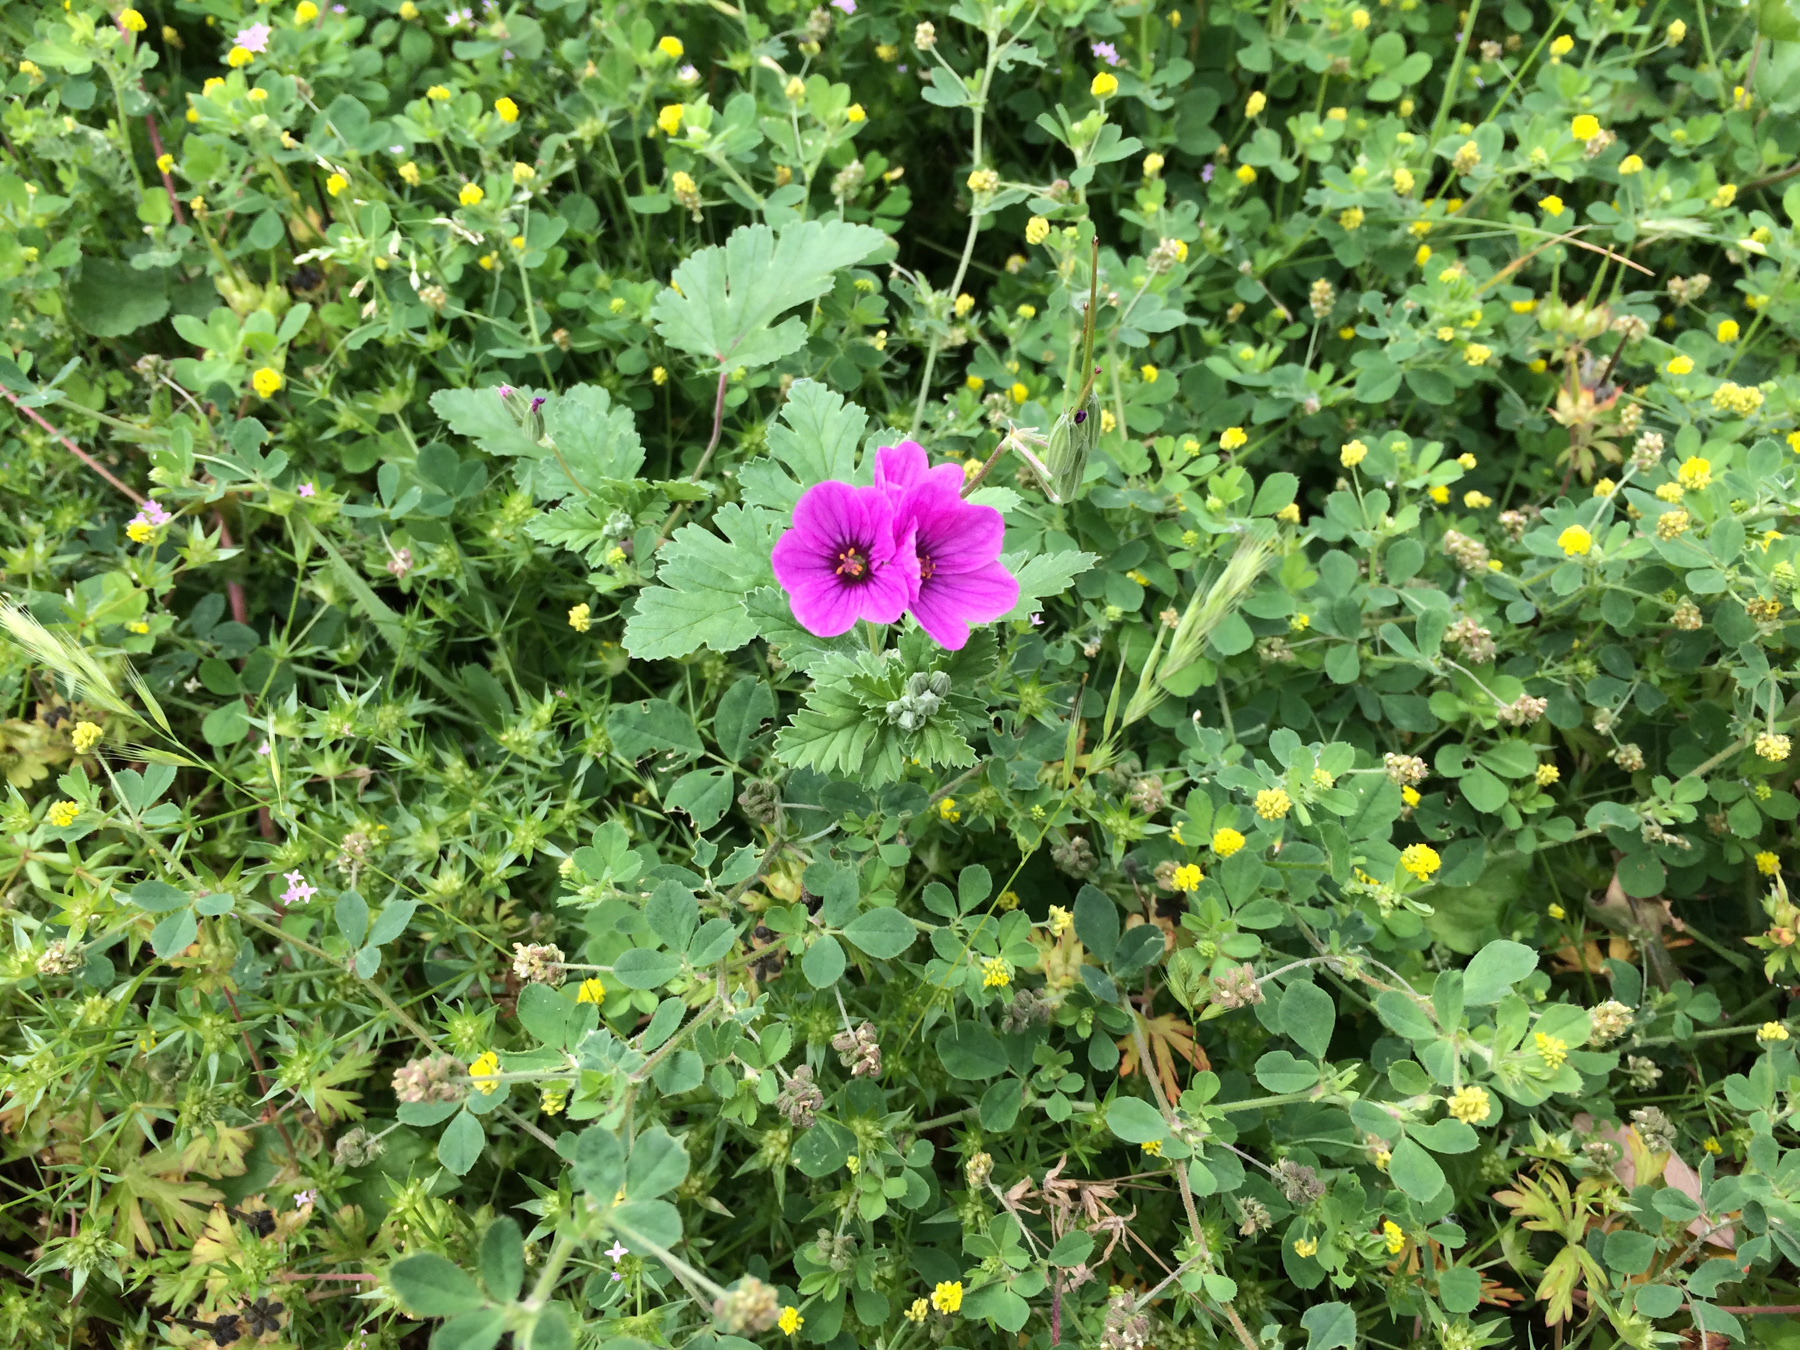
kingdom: Plantae
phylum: Tracheophyta
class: Magnoliopsida
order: Geraniales
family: Geraniaceae
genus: Erodium
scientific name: Erodium texanum
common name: Texas stork's-bill
